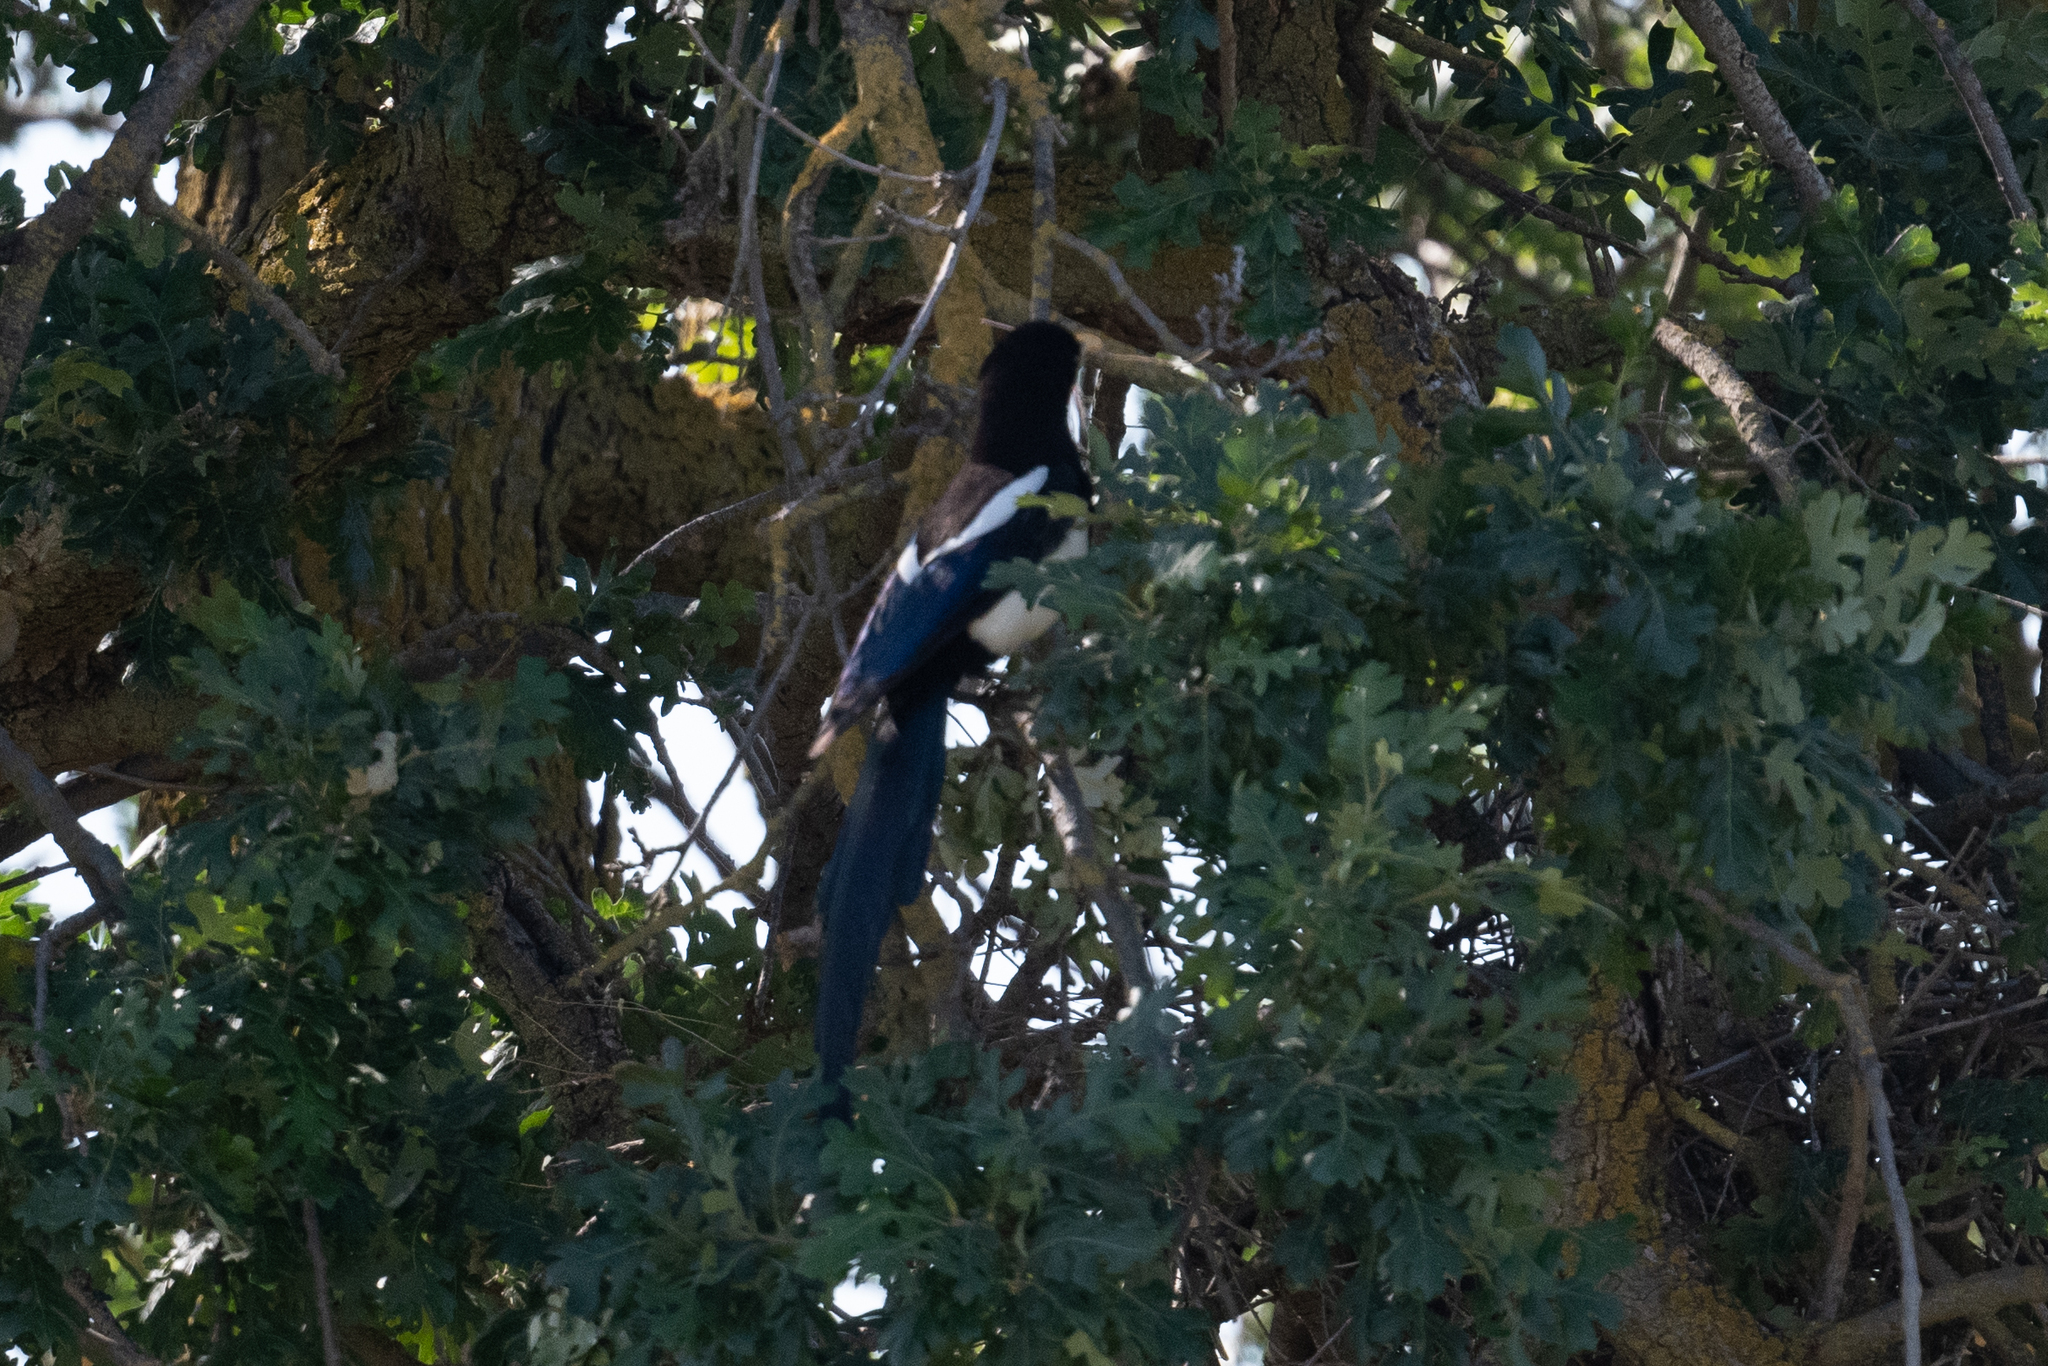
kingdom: Animalia
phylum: Chordata
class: Aves
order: Passeriformes
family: Corvidae
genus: Pica
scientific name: Pica nuttalli
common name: Yellow-billed magpie
